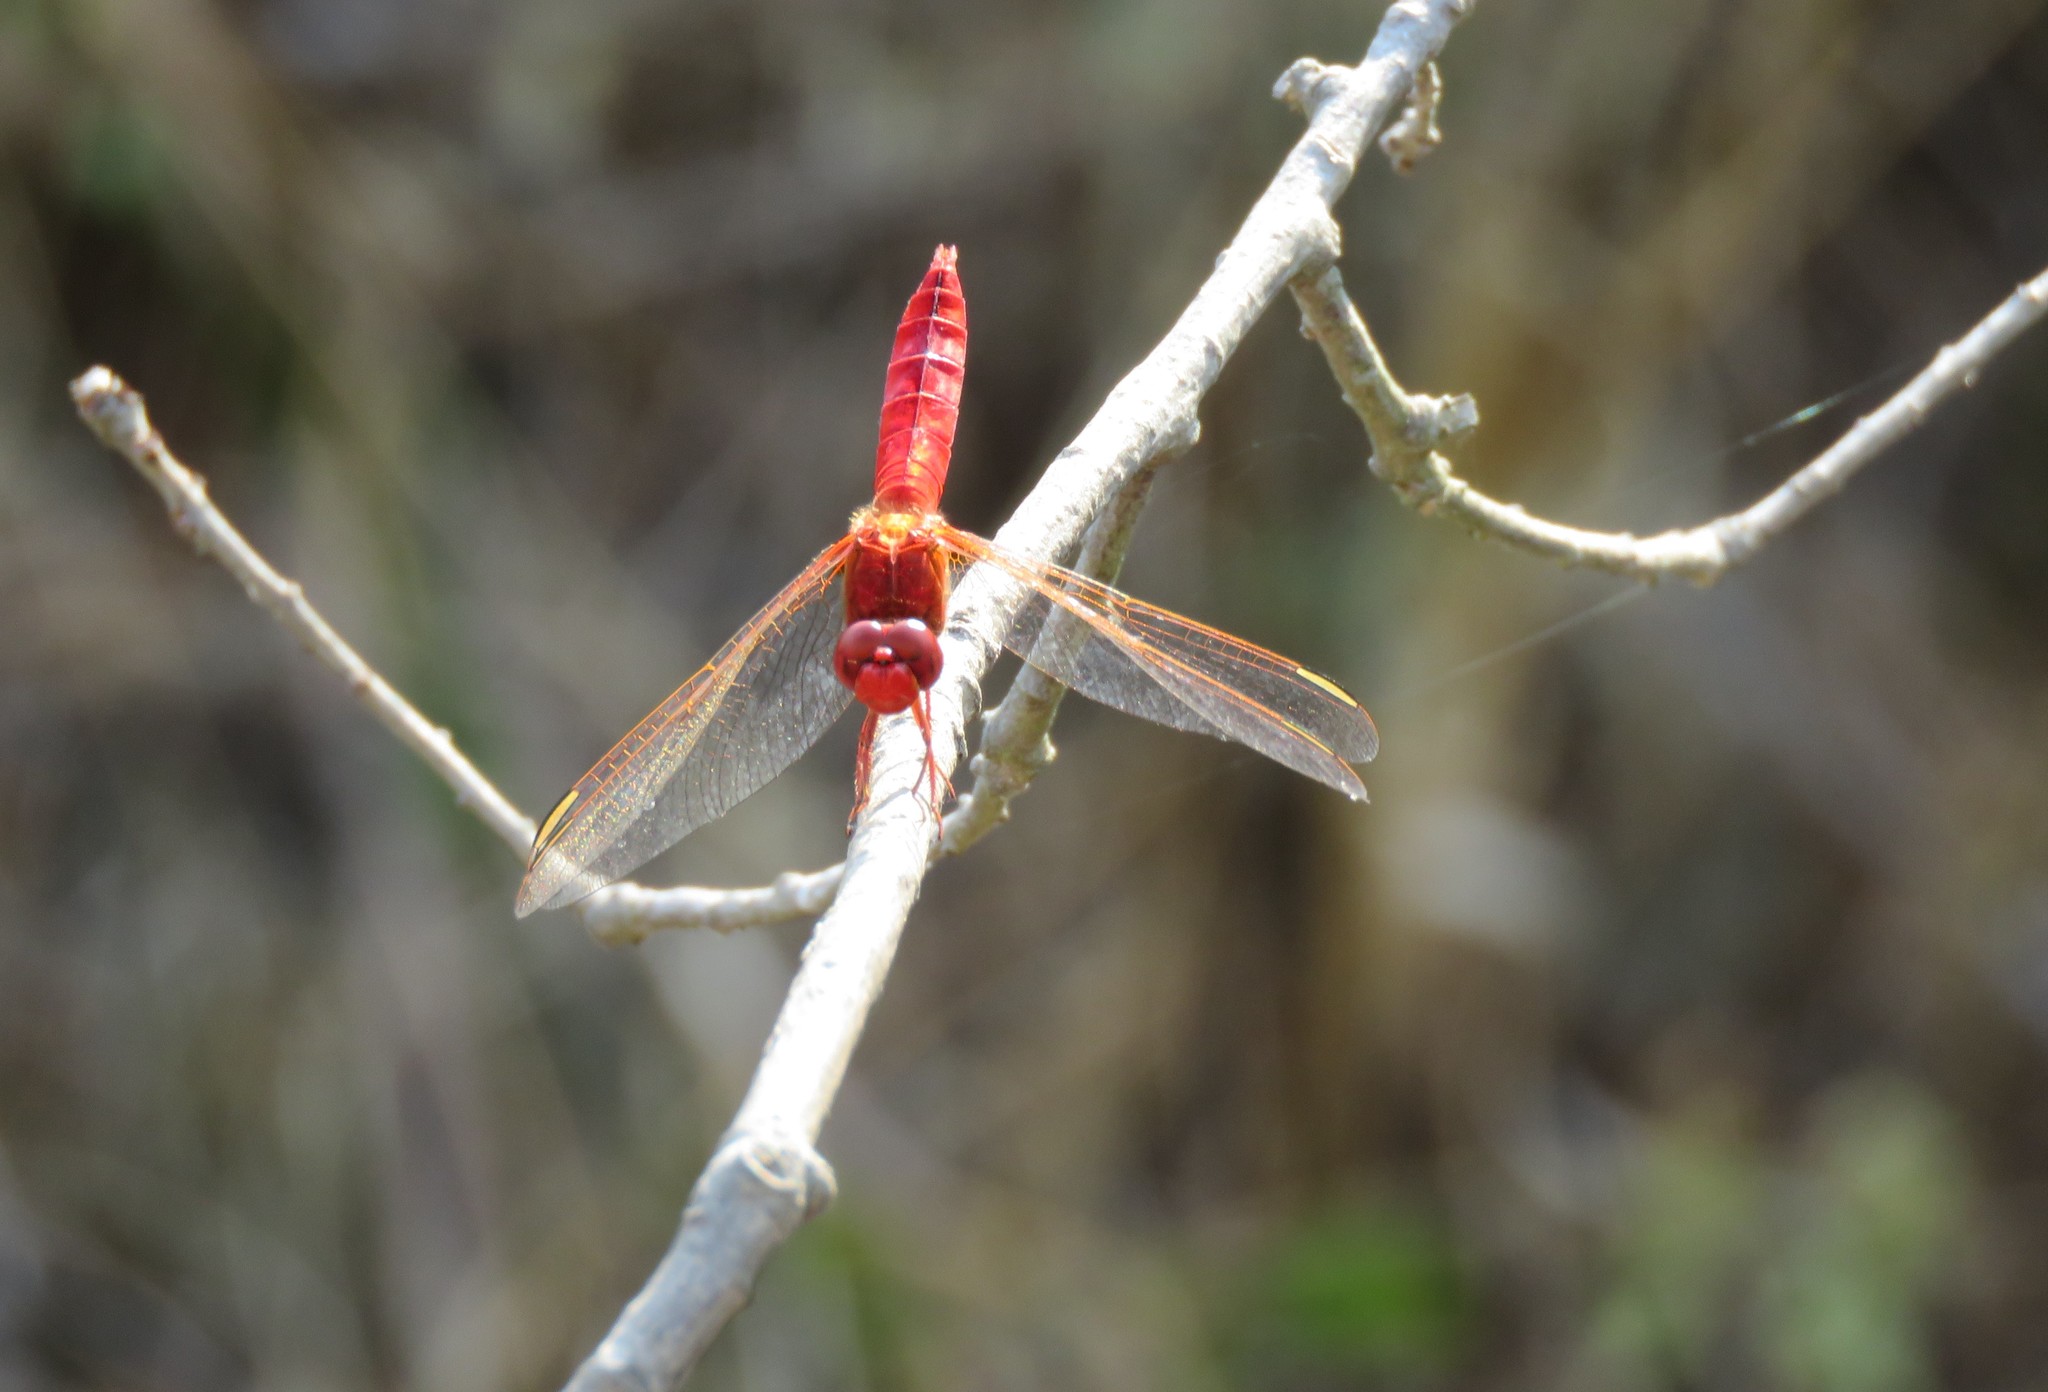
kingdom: Animalia
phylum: Arthropoda
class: Insecta
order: Odonata
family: Libellulidae
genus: Crocothemis
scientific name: Crocothemis erythraea
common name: Scarlet dragonfly
